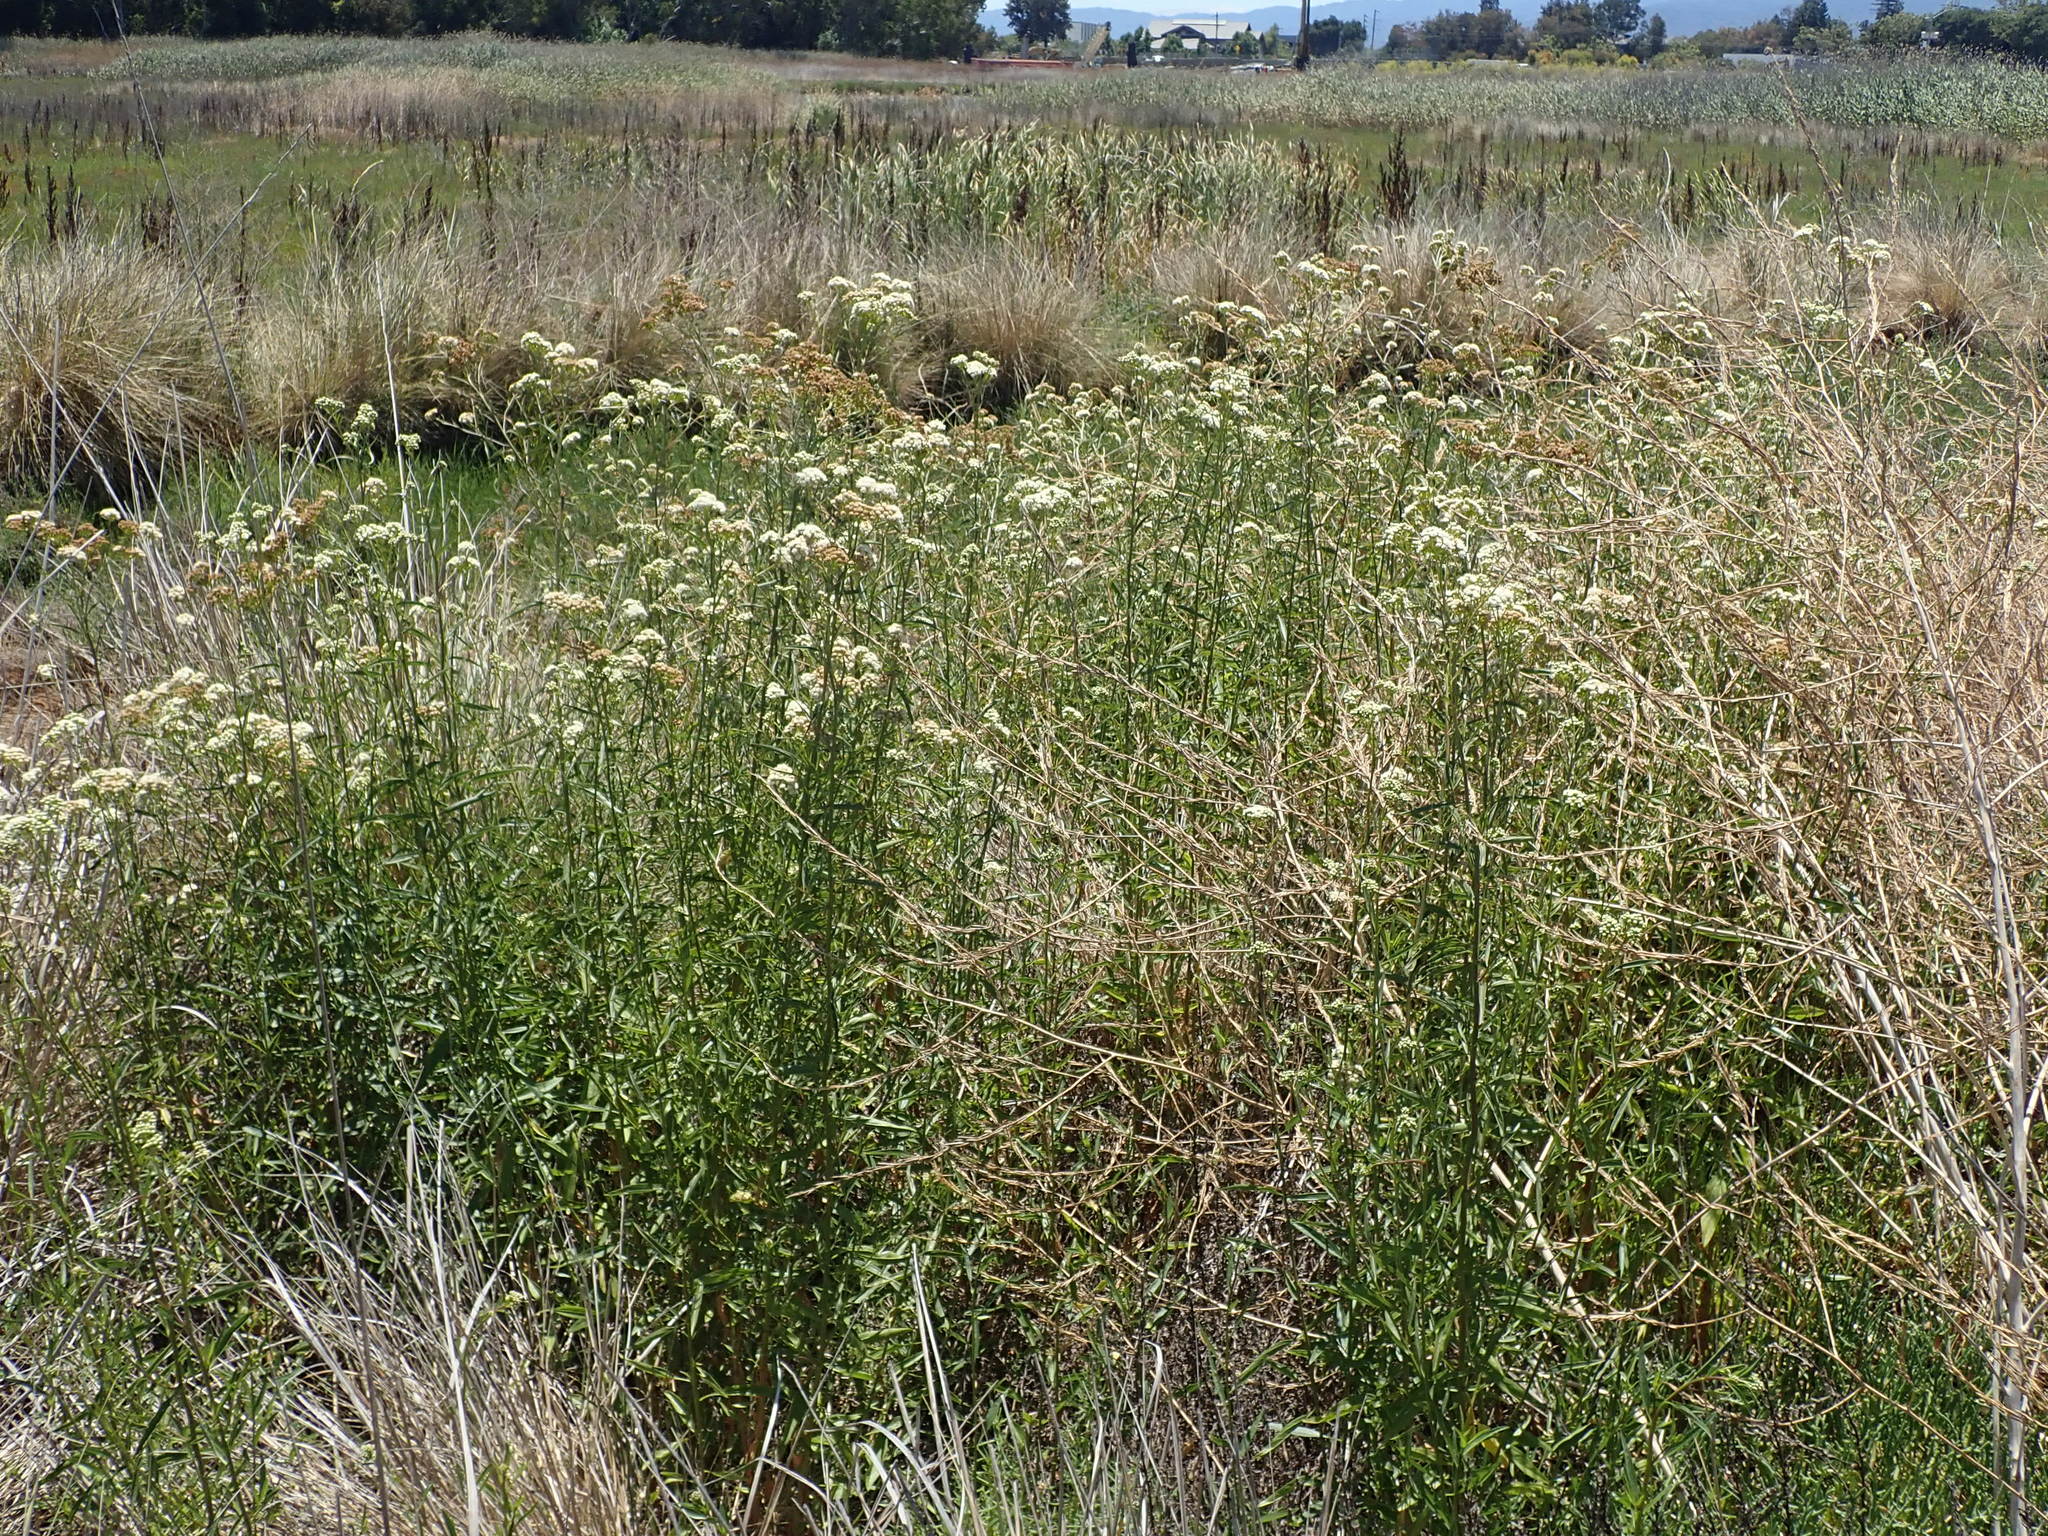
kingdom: Plantae
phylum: Tracheophyta
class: Magnoliopsida
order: Asterales
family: Asteraceae
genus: Baccharis
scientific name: Baccharis glutinosa
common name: Saltmarsh baccharis
